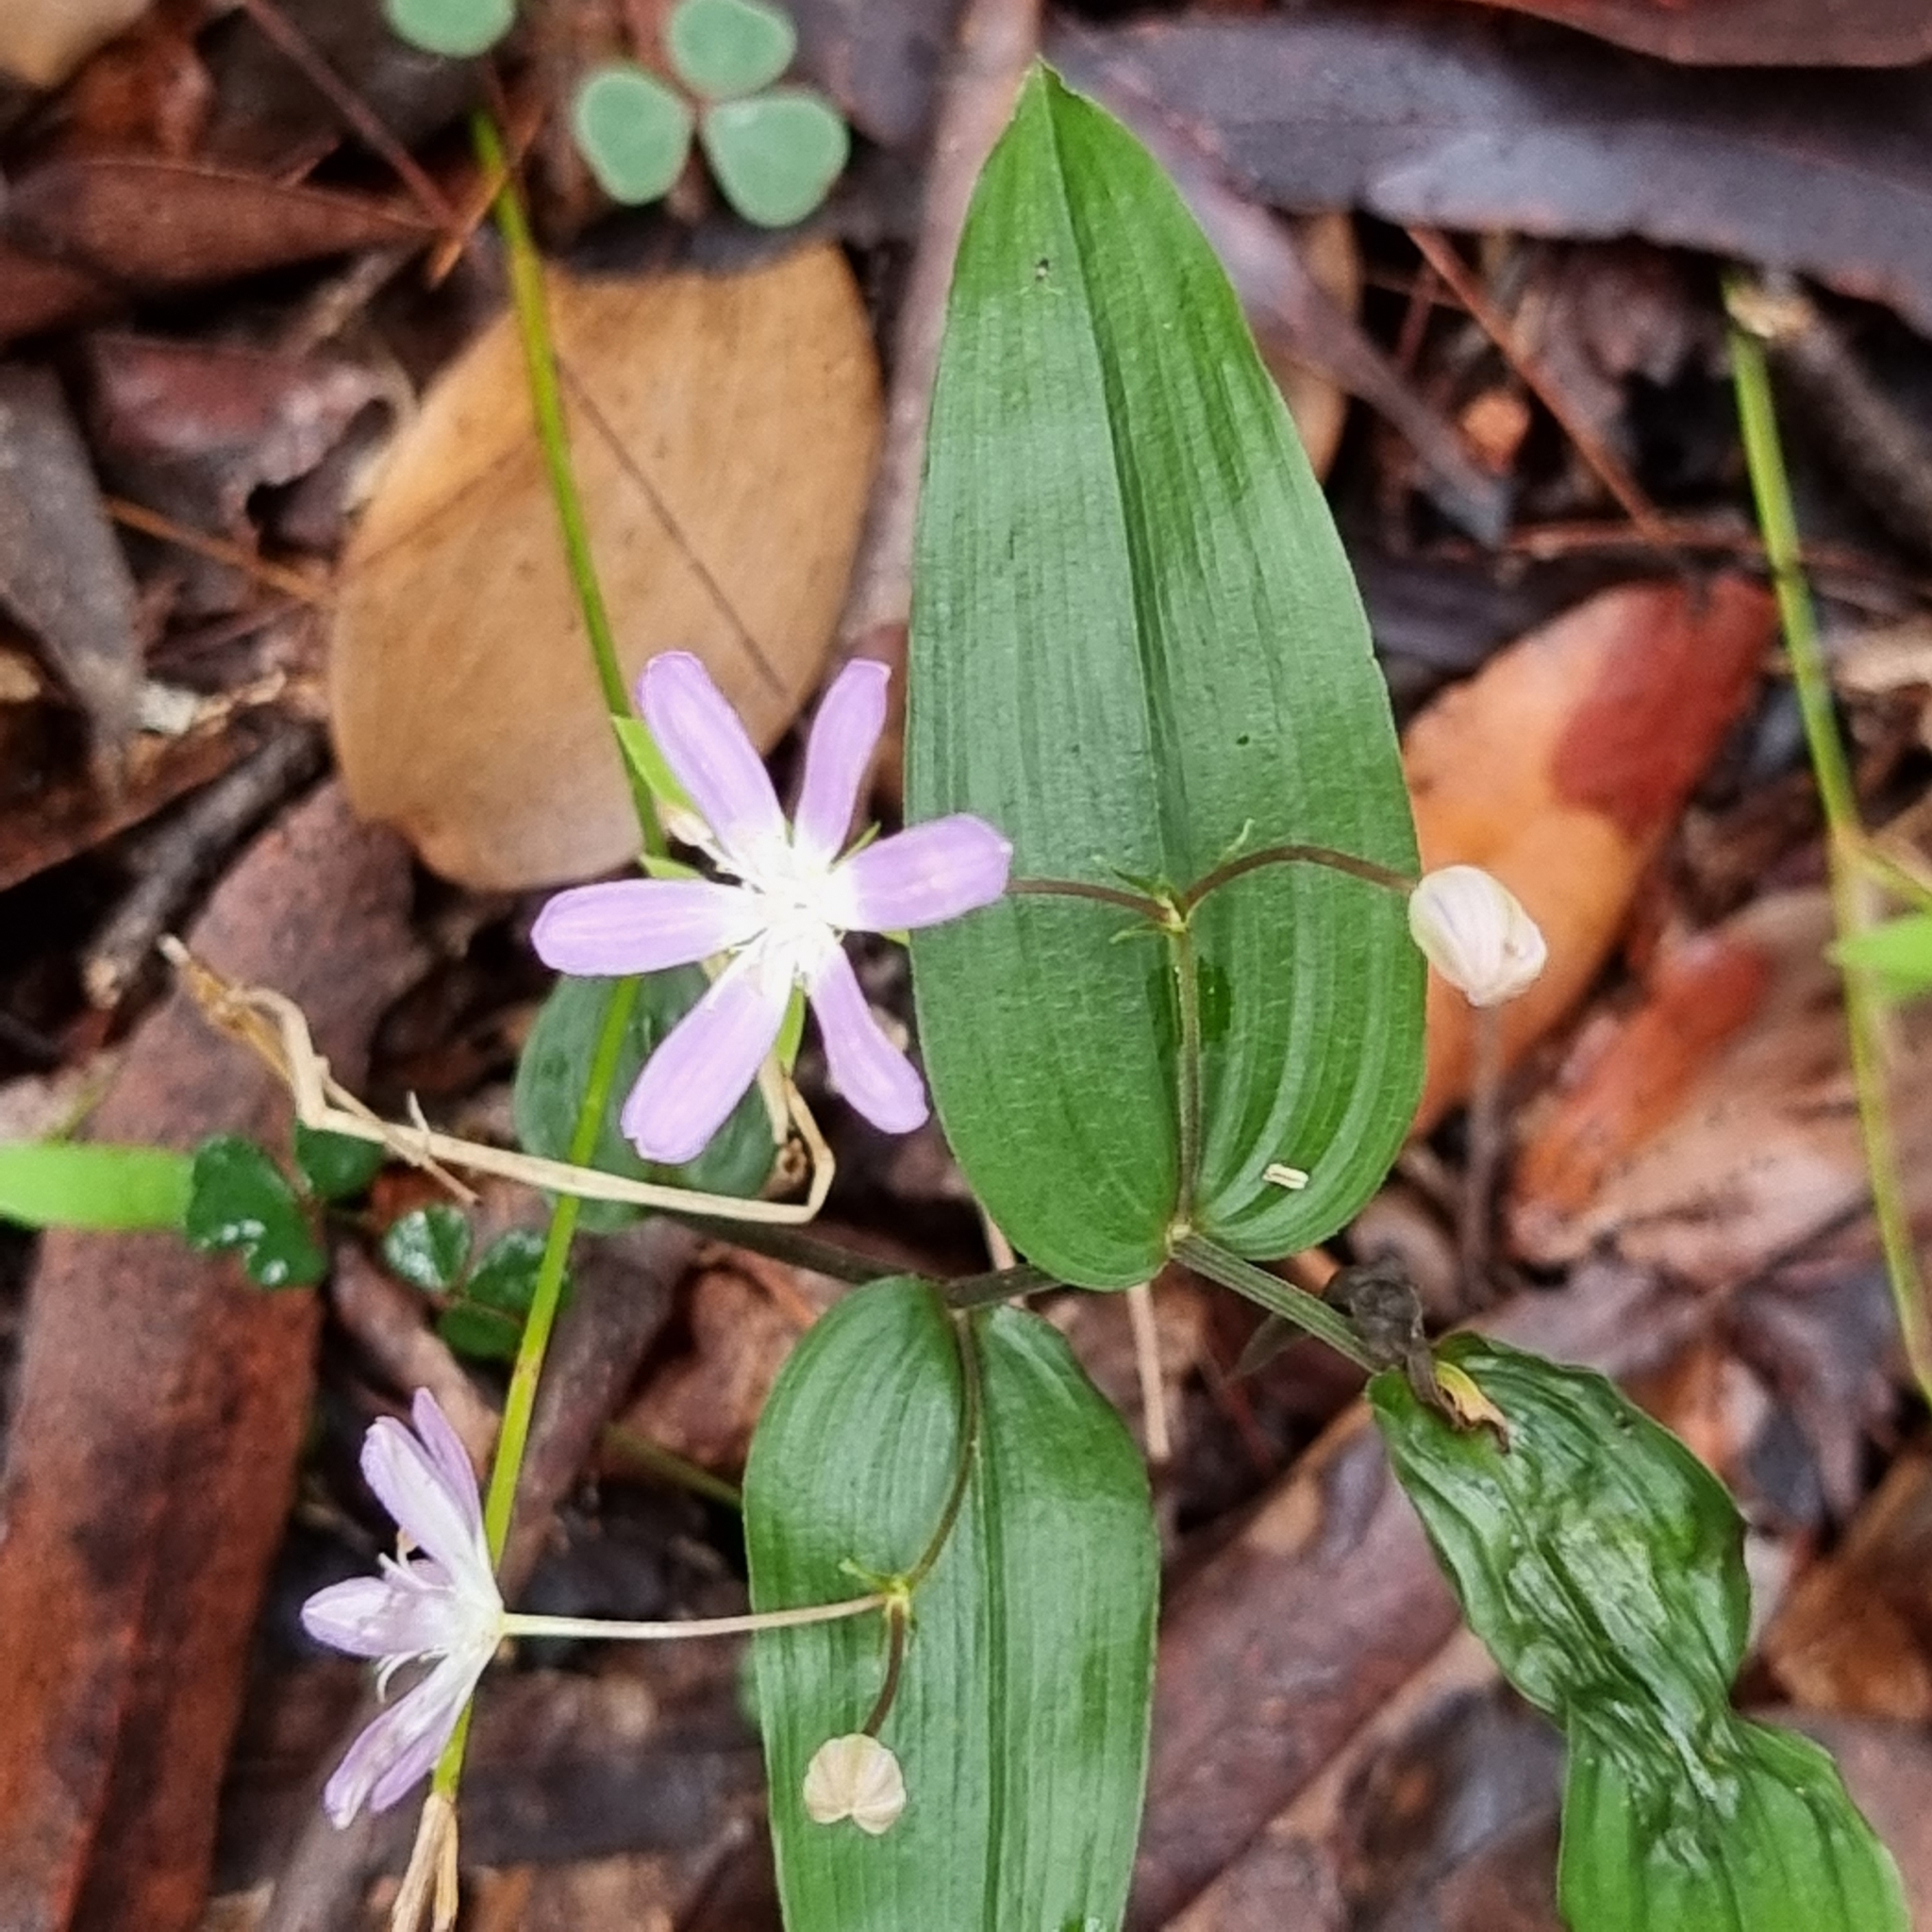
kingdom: Plantae
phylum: Tracheophyta
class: Liliopsida
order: Liliales
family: Colchicaceae
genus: Tripladenia
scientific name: Tripladenia cunninghamii
